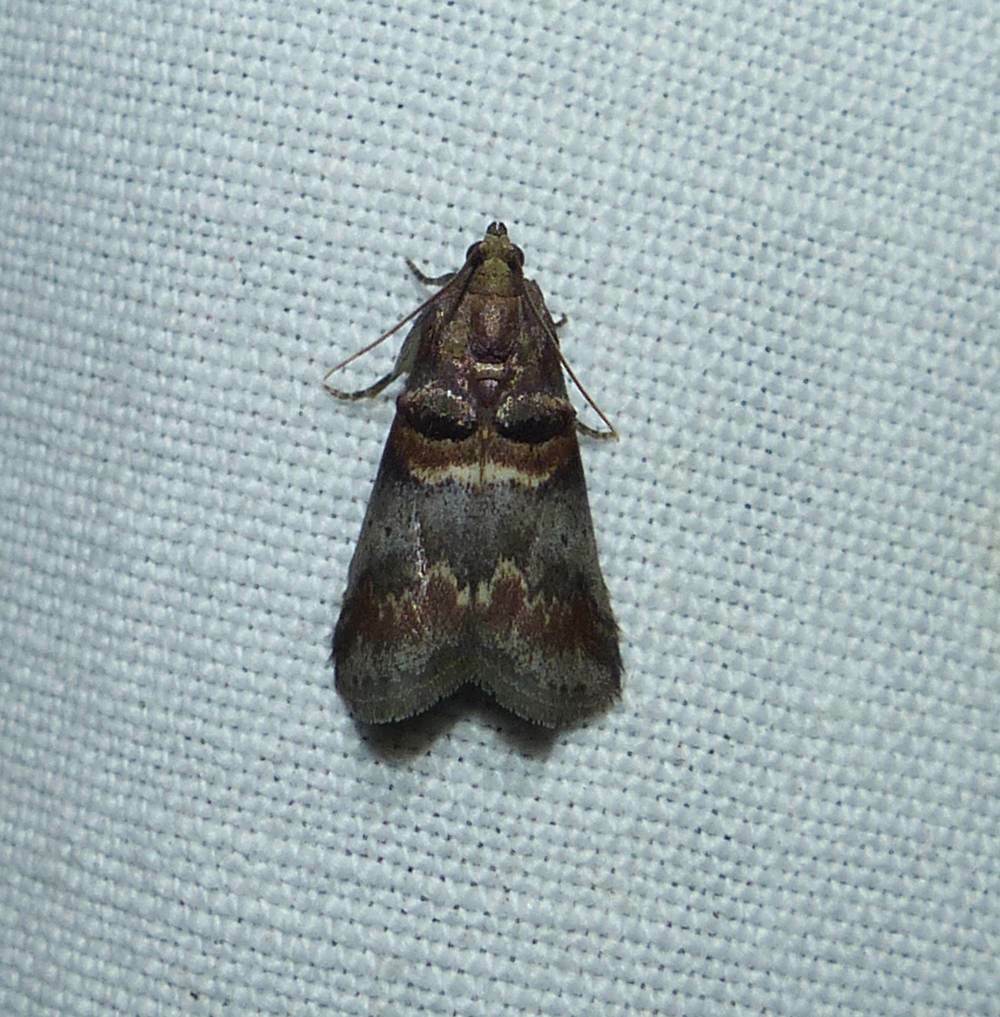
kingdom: Animalia
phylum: Arthropoda
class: Insecta
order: Lepidoptera
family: Pyralidae
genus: Acrobasis
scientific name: Acrobasis angusella
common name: Hickory leafstem borer moth
